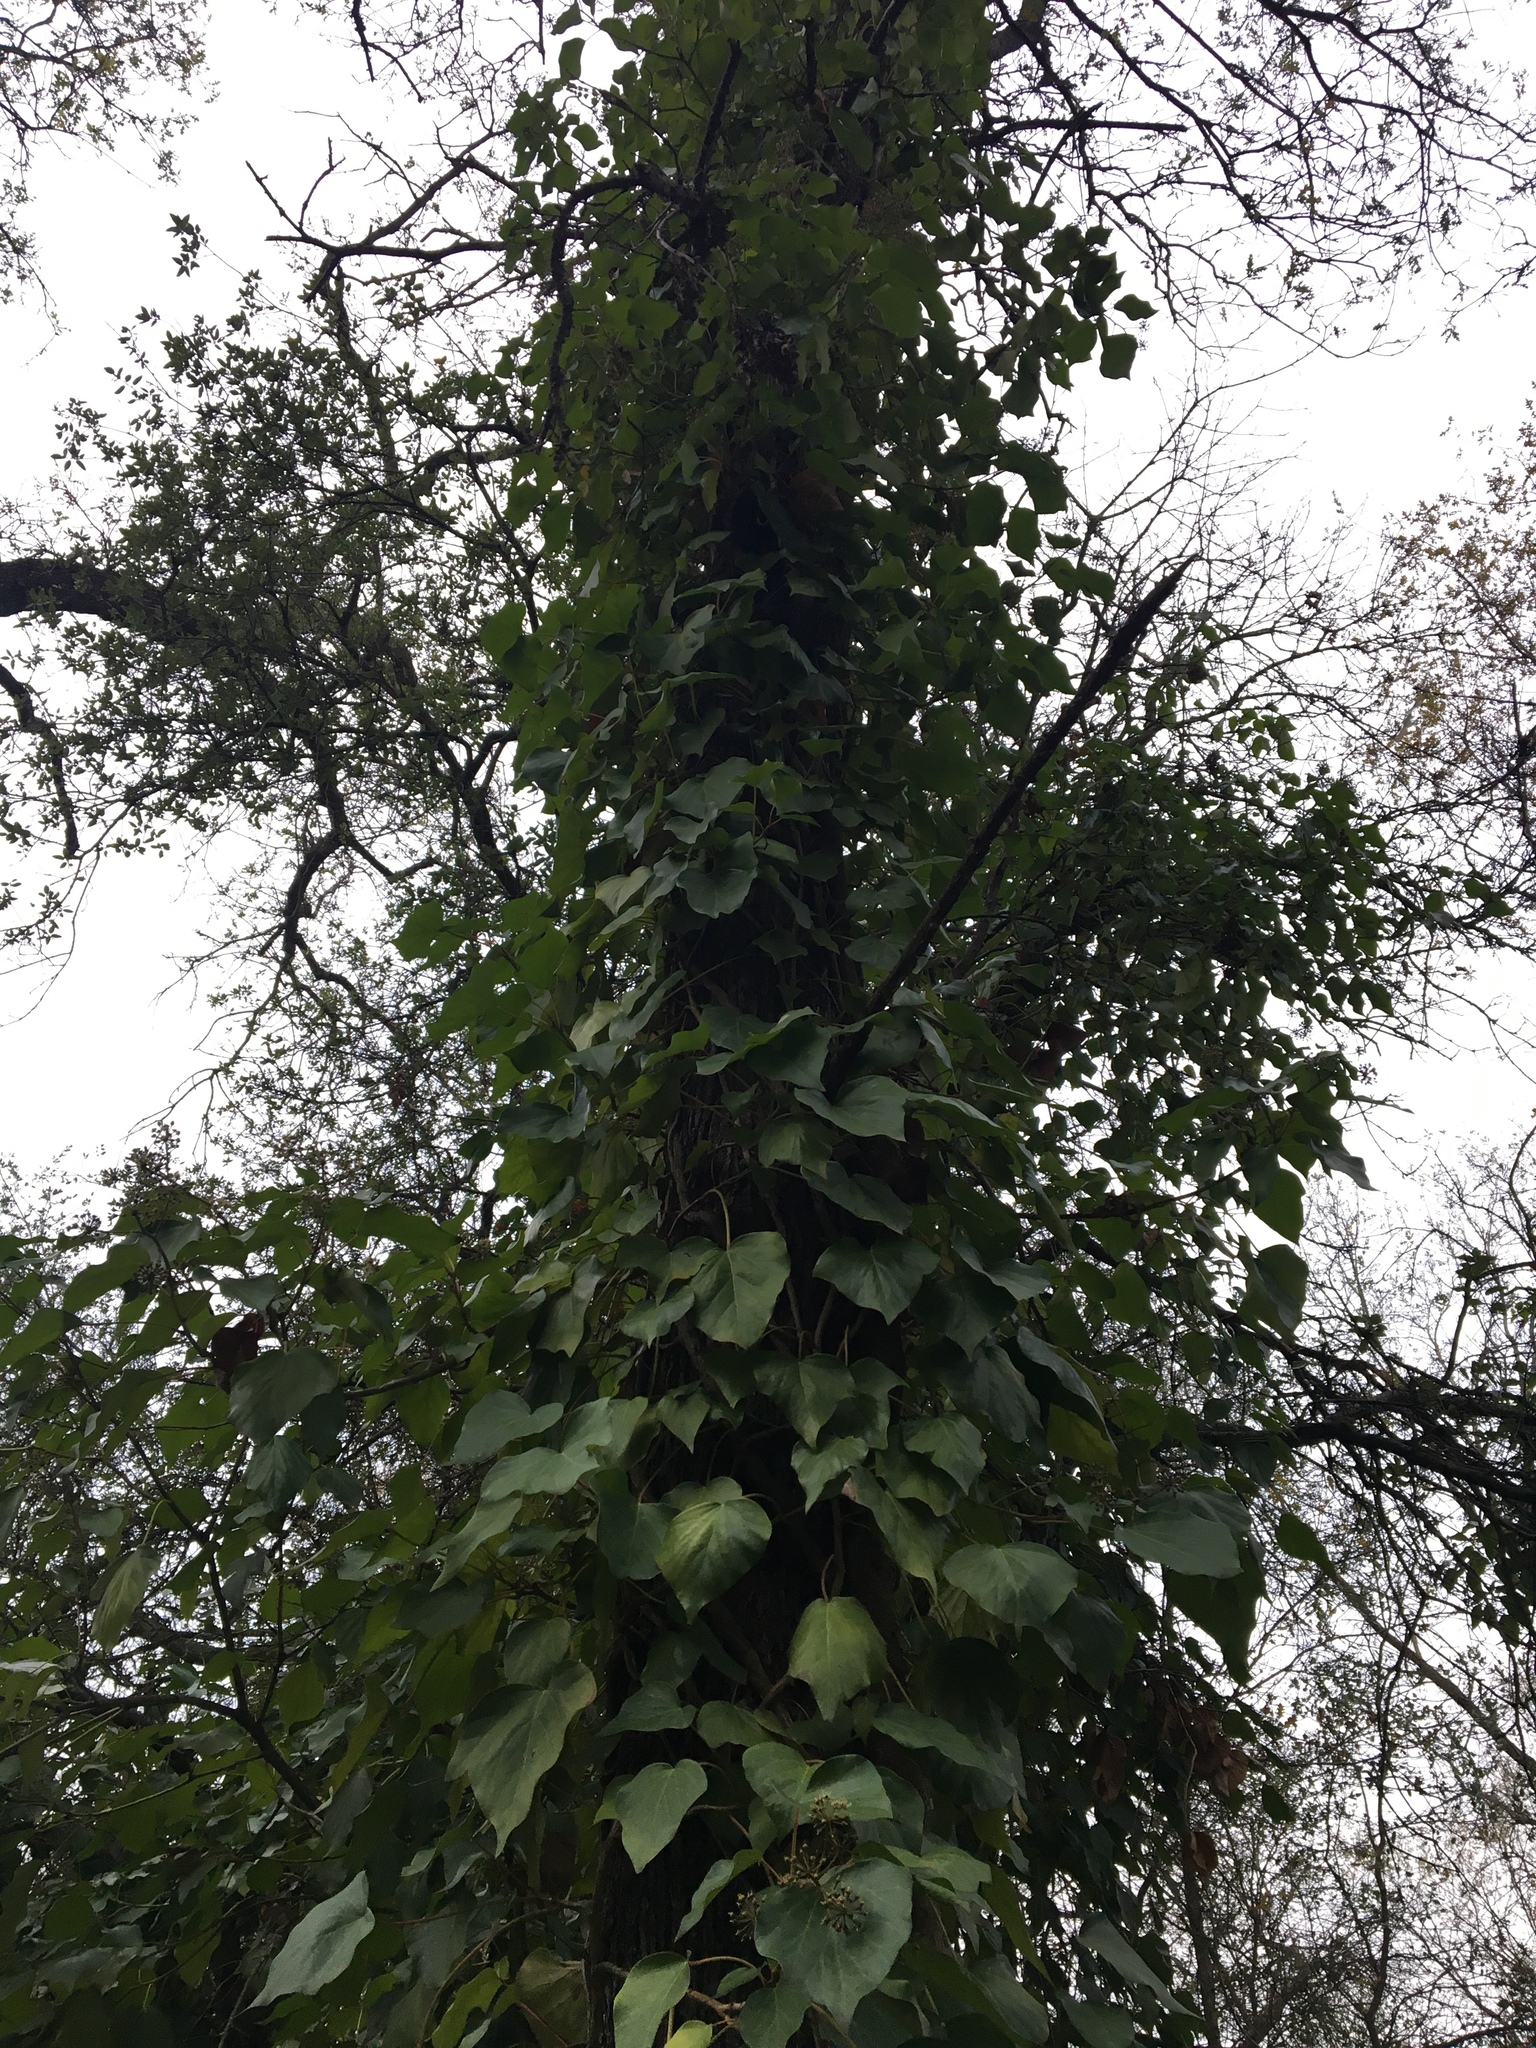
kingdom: Plantae
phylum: Tracheophyta
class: Magnoliopsida
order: Apiales
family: Araliaceae
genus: Hedera
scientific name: Hedera helix
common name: Ivy
